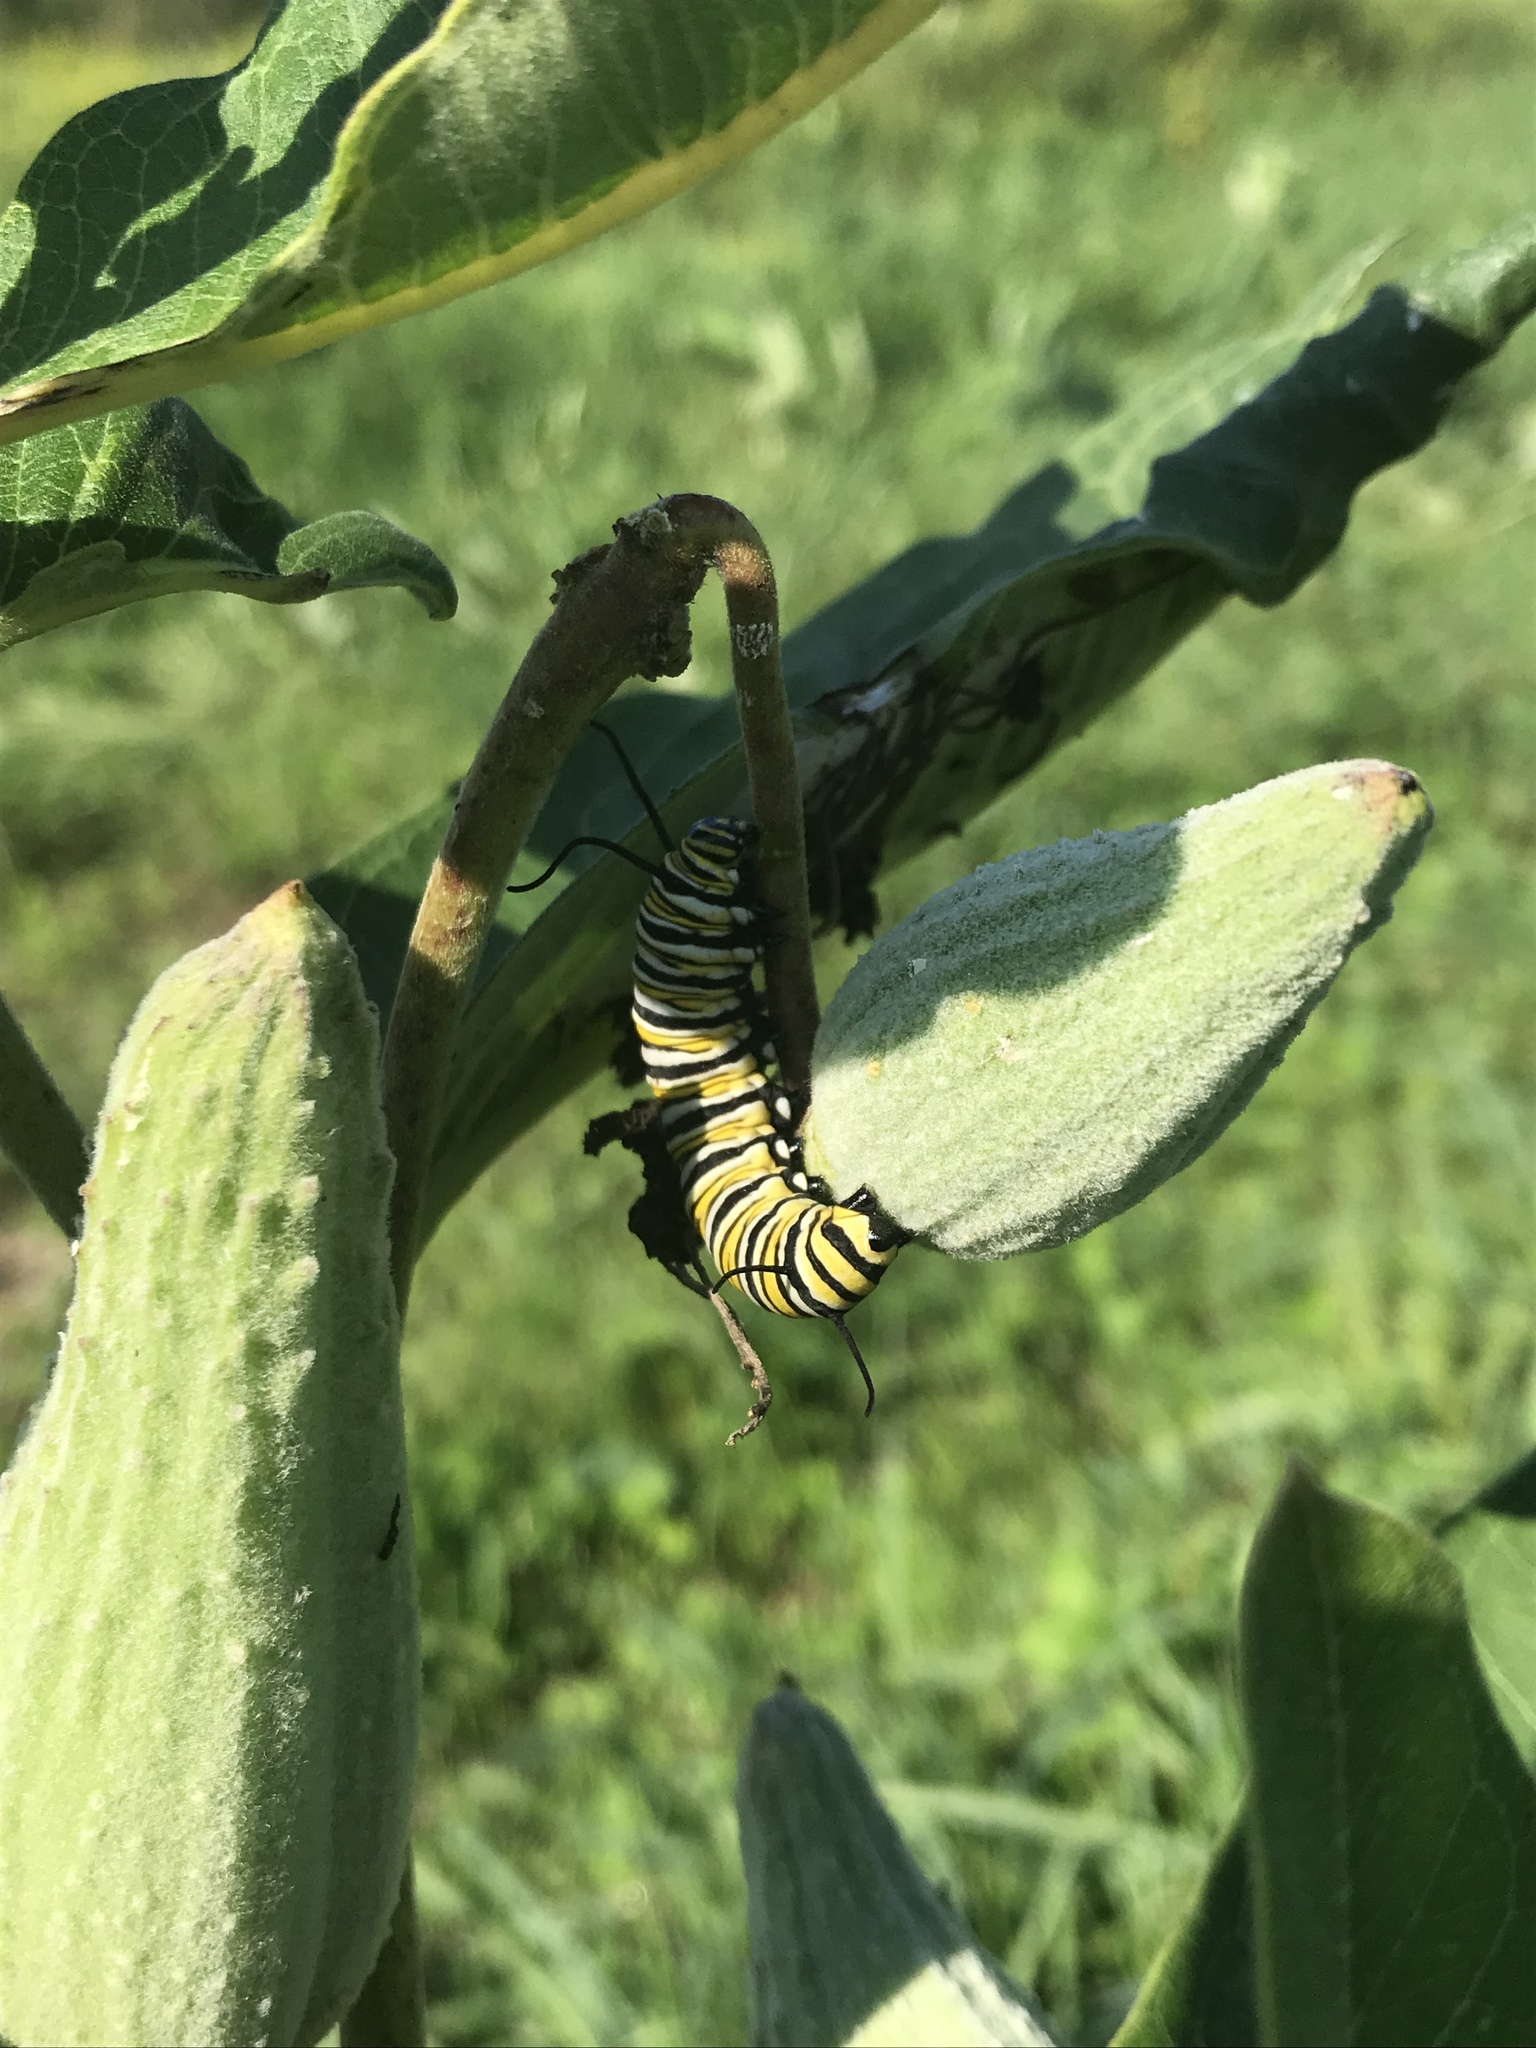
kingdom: Animalia
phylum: Arthropoda
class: Insecta
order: Lepidoptera
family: Nymphalidae
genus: Danaus
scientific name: Danaus plexippus
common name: Monarch
